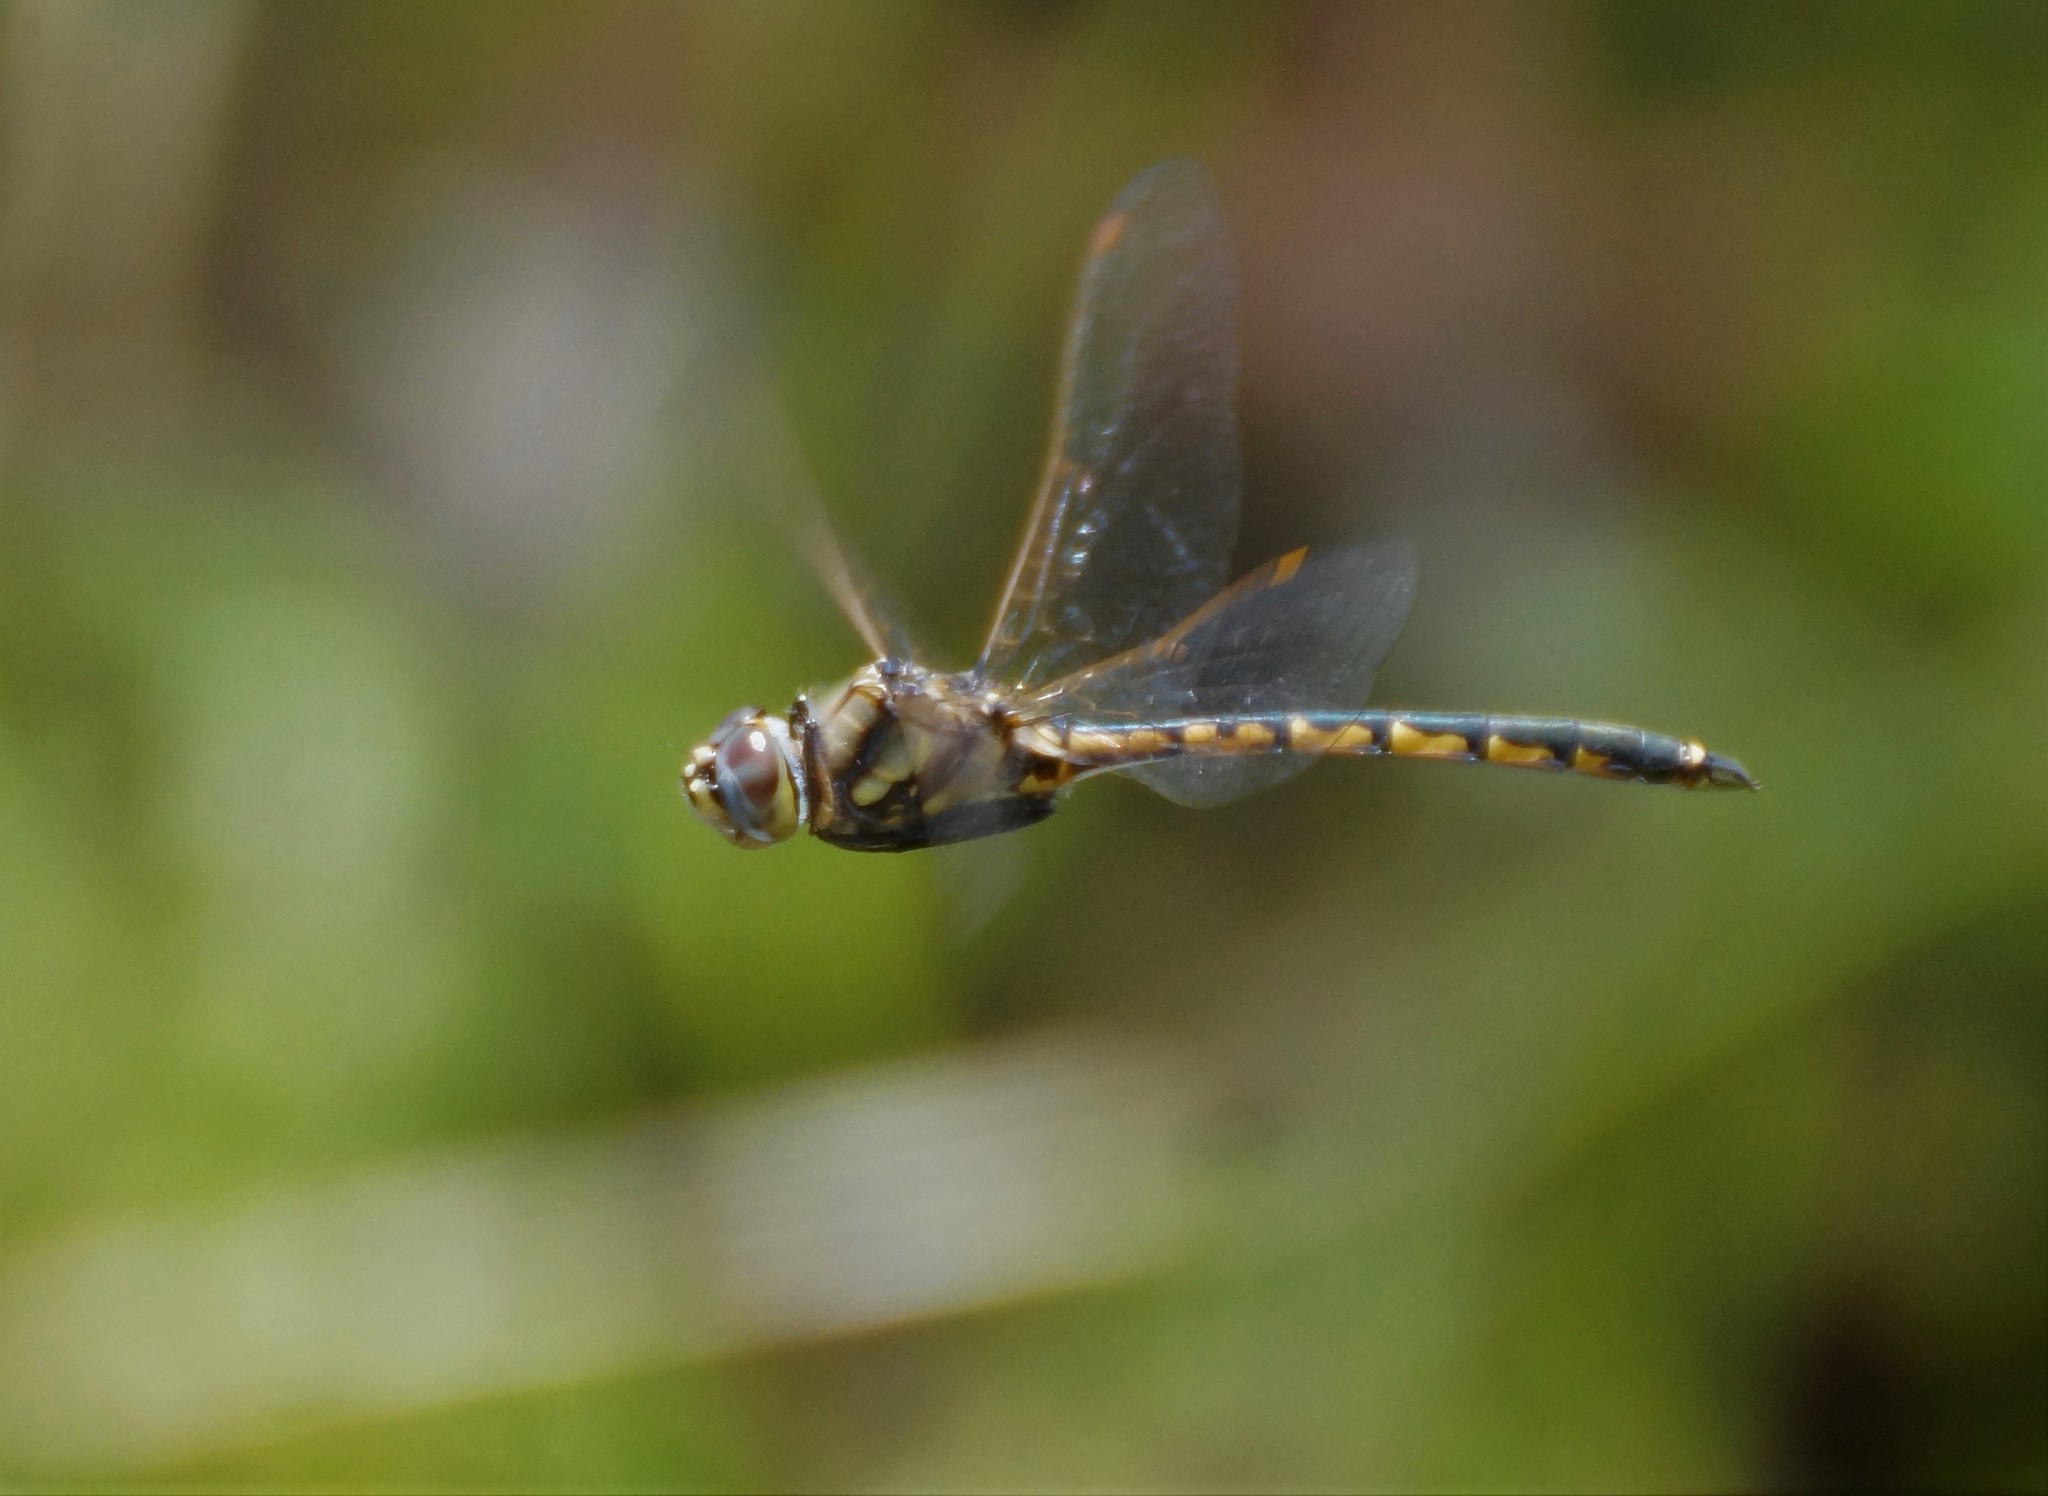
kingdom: Animalia
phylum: Arthropoda
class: Insecta
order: Odonata
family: Corduliidae
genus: Hemicordulia
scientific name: Hemicordulia tau
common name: Tau emerald
